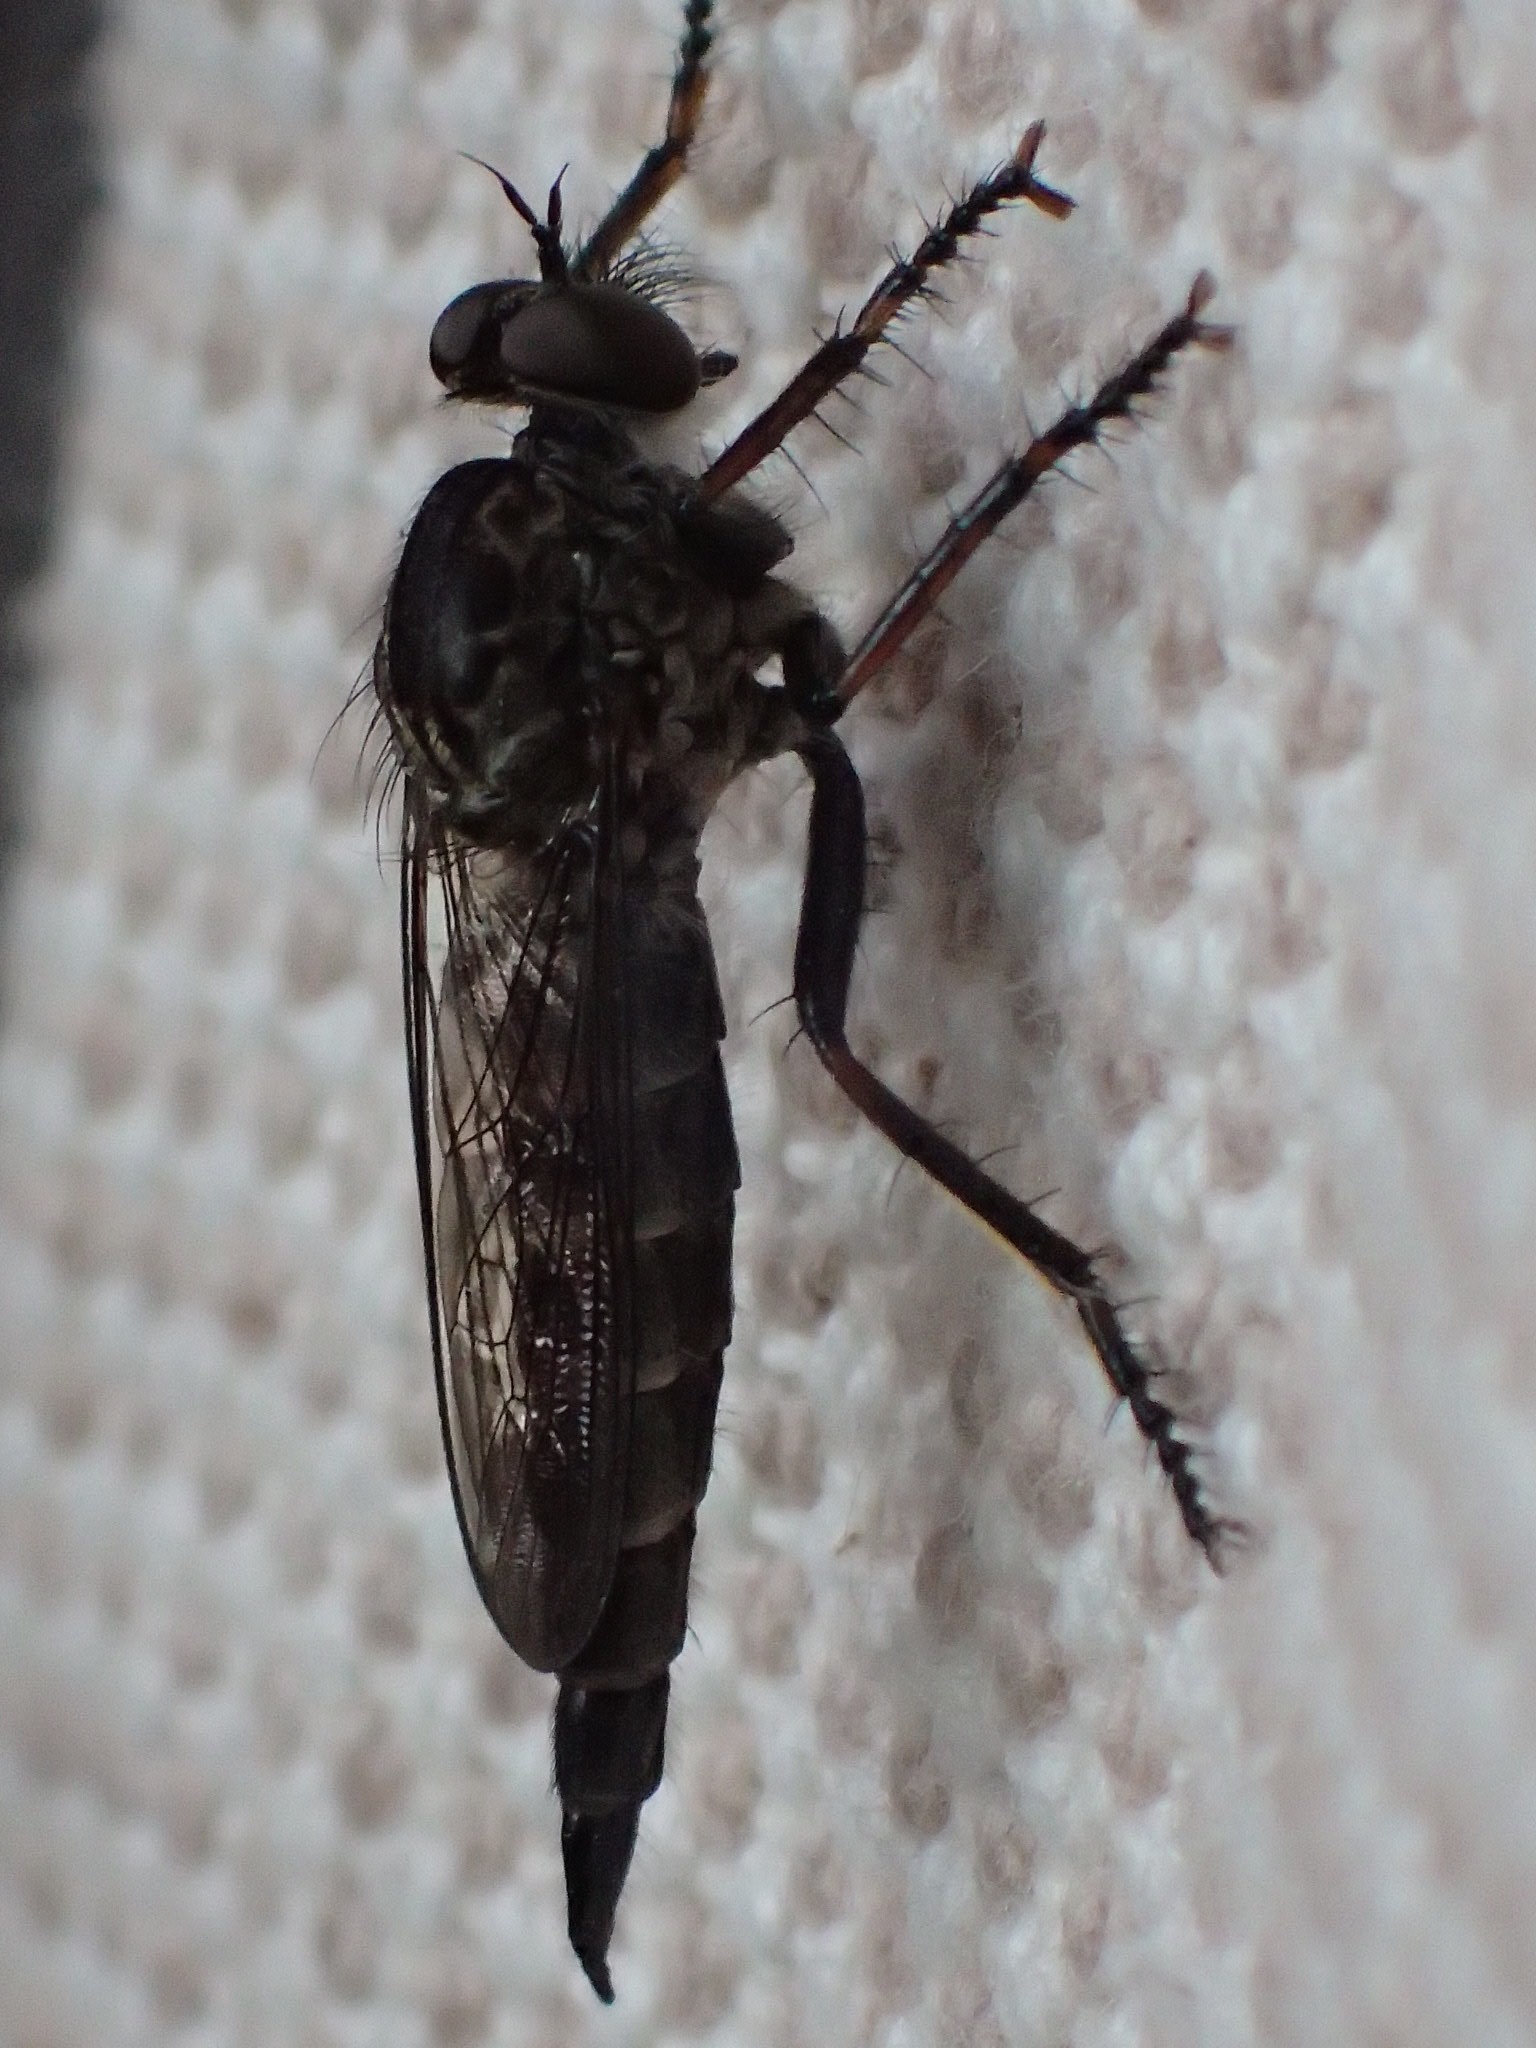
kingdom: Animalia
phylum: Arthropoda
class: Insecta
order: Diptera
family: Asilidae
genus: Machimus
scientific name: Machimus sadyates
